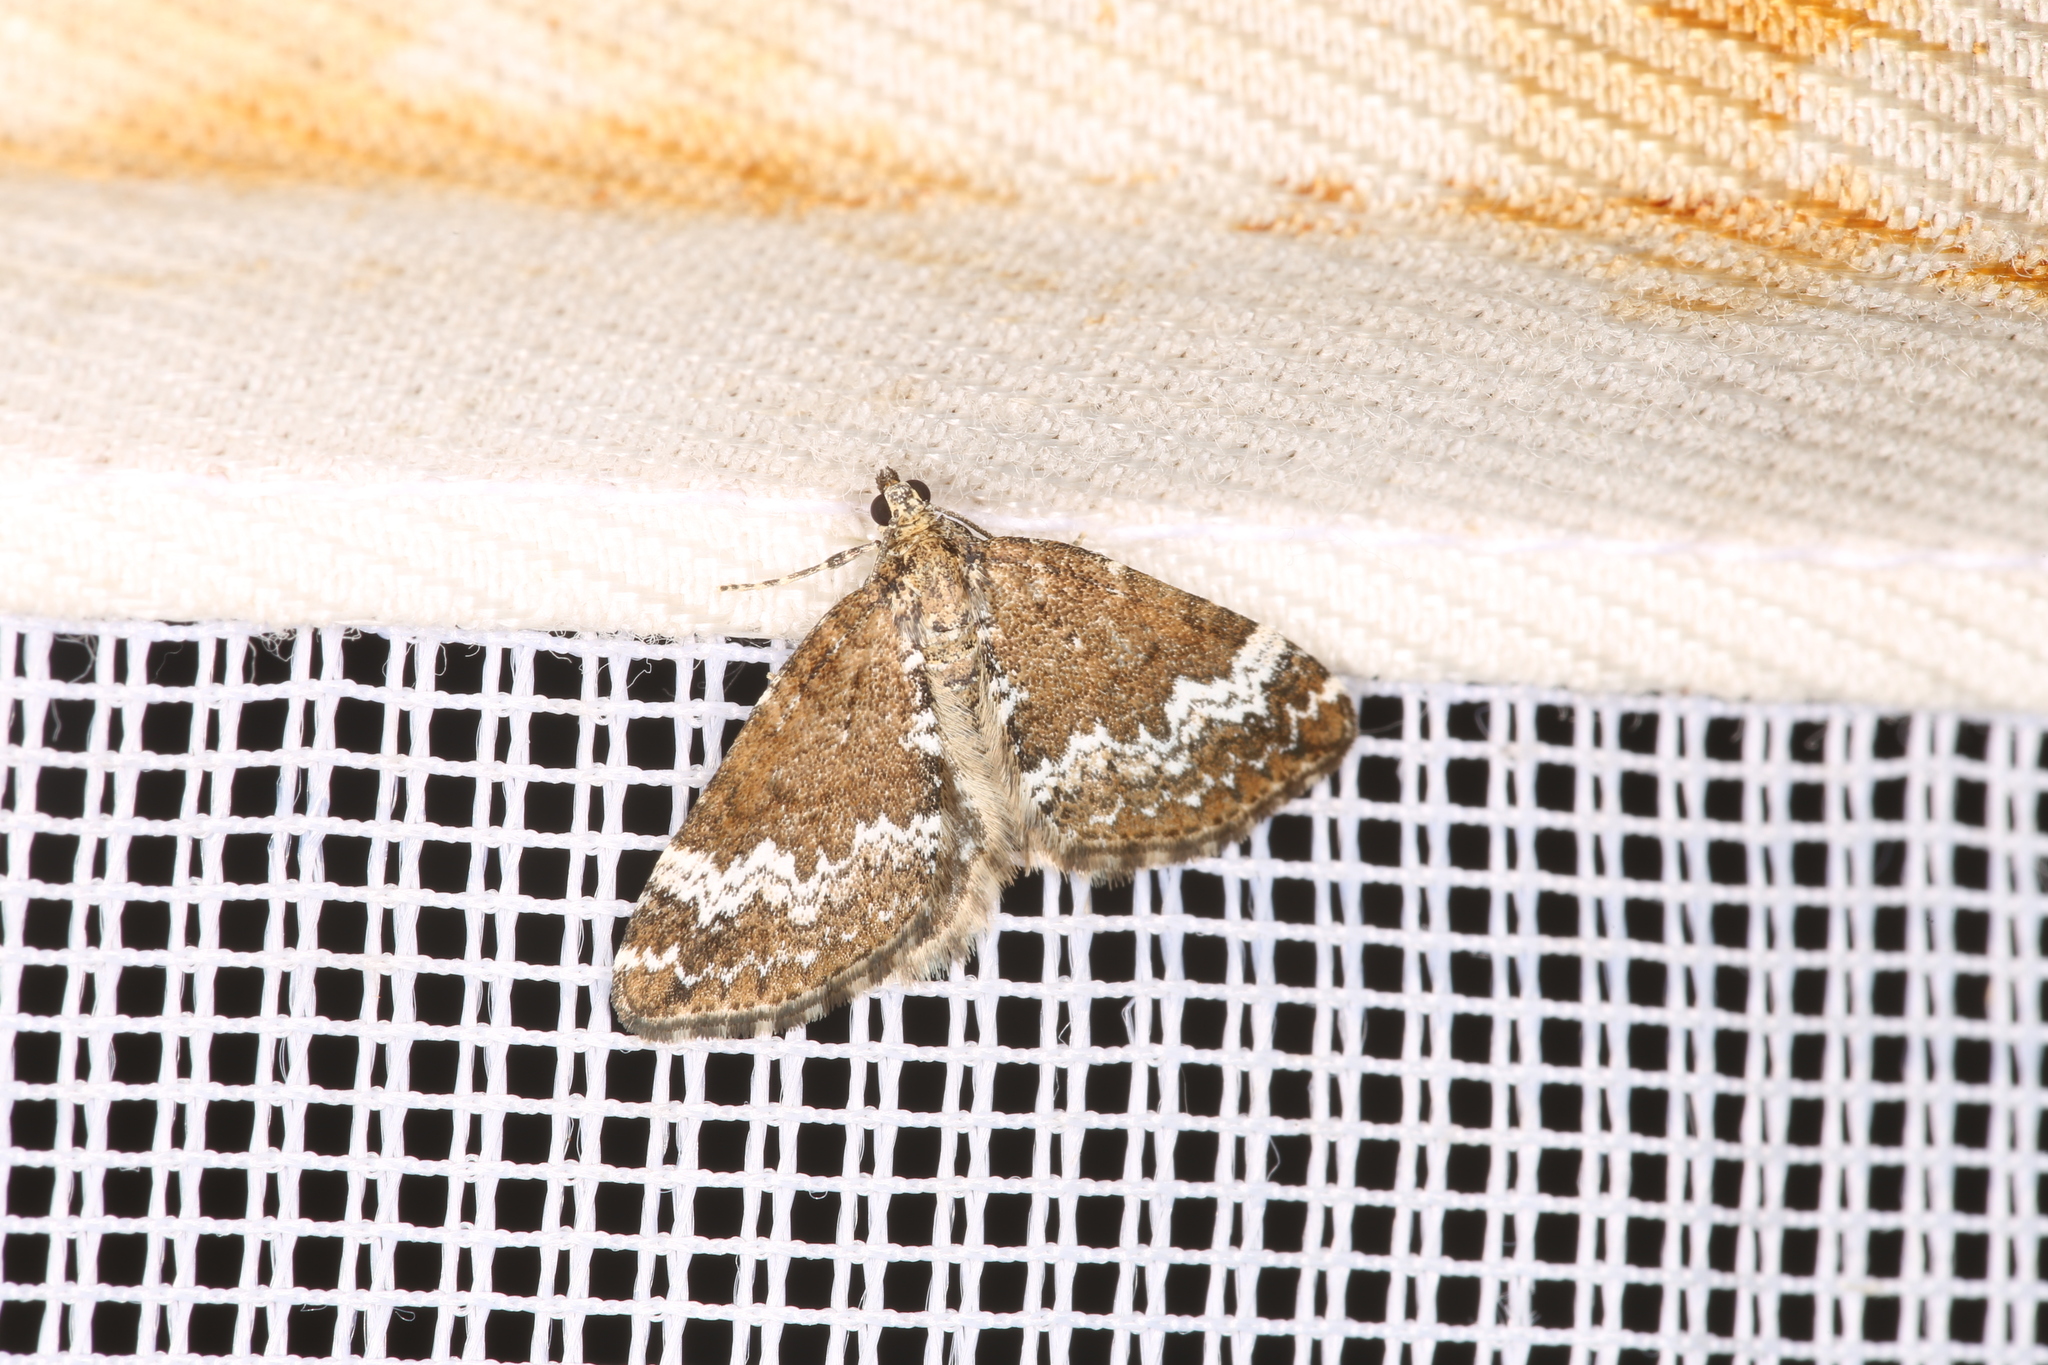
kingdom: Animalia
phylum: Arthropoda
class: Insecta
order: Lepidoptera
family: Geometridae
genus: Perizoma
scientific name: Perizoma alchemillata
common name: Small rivulet
